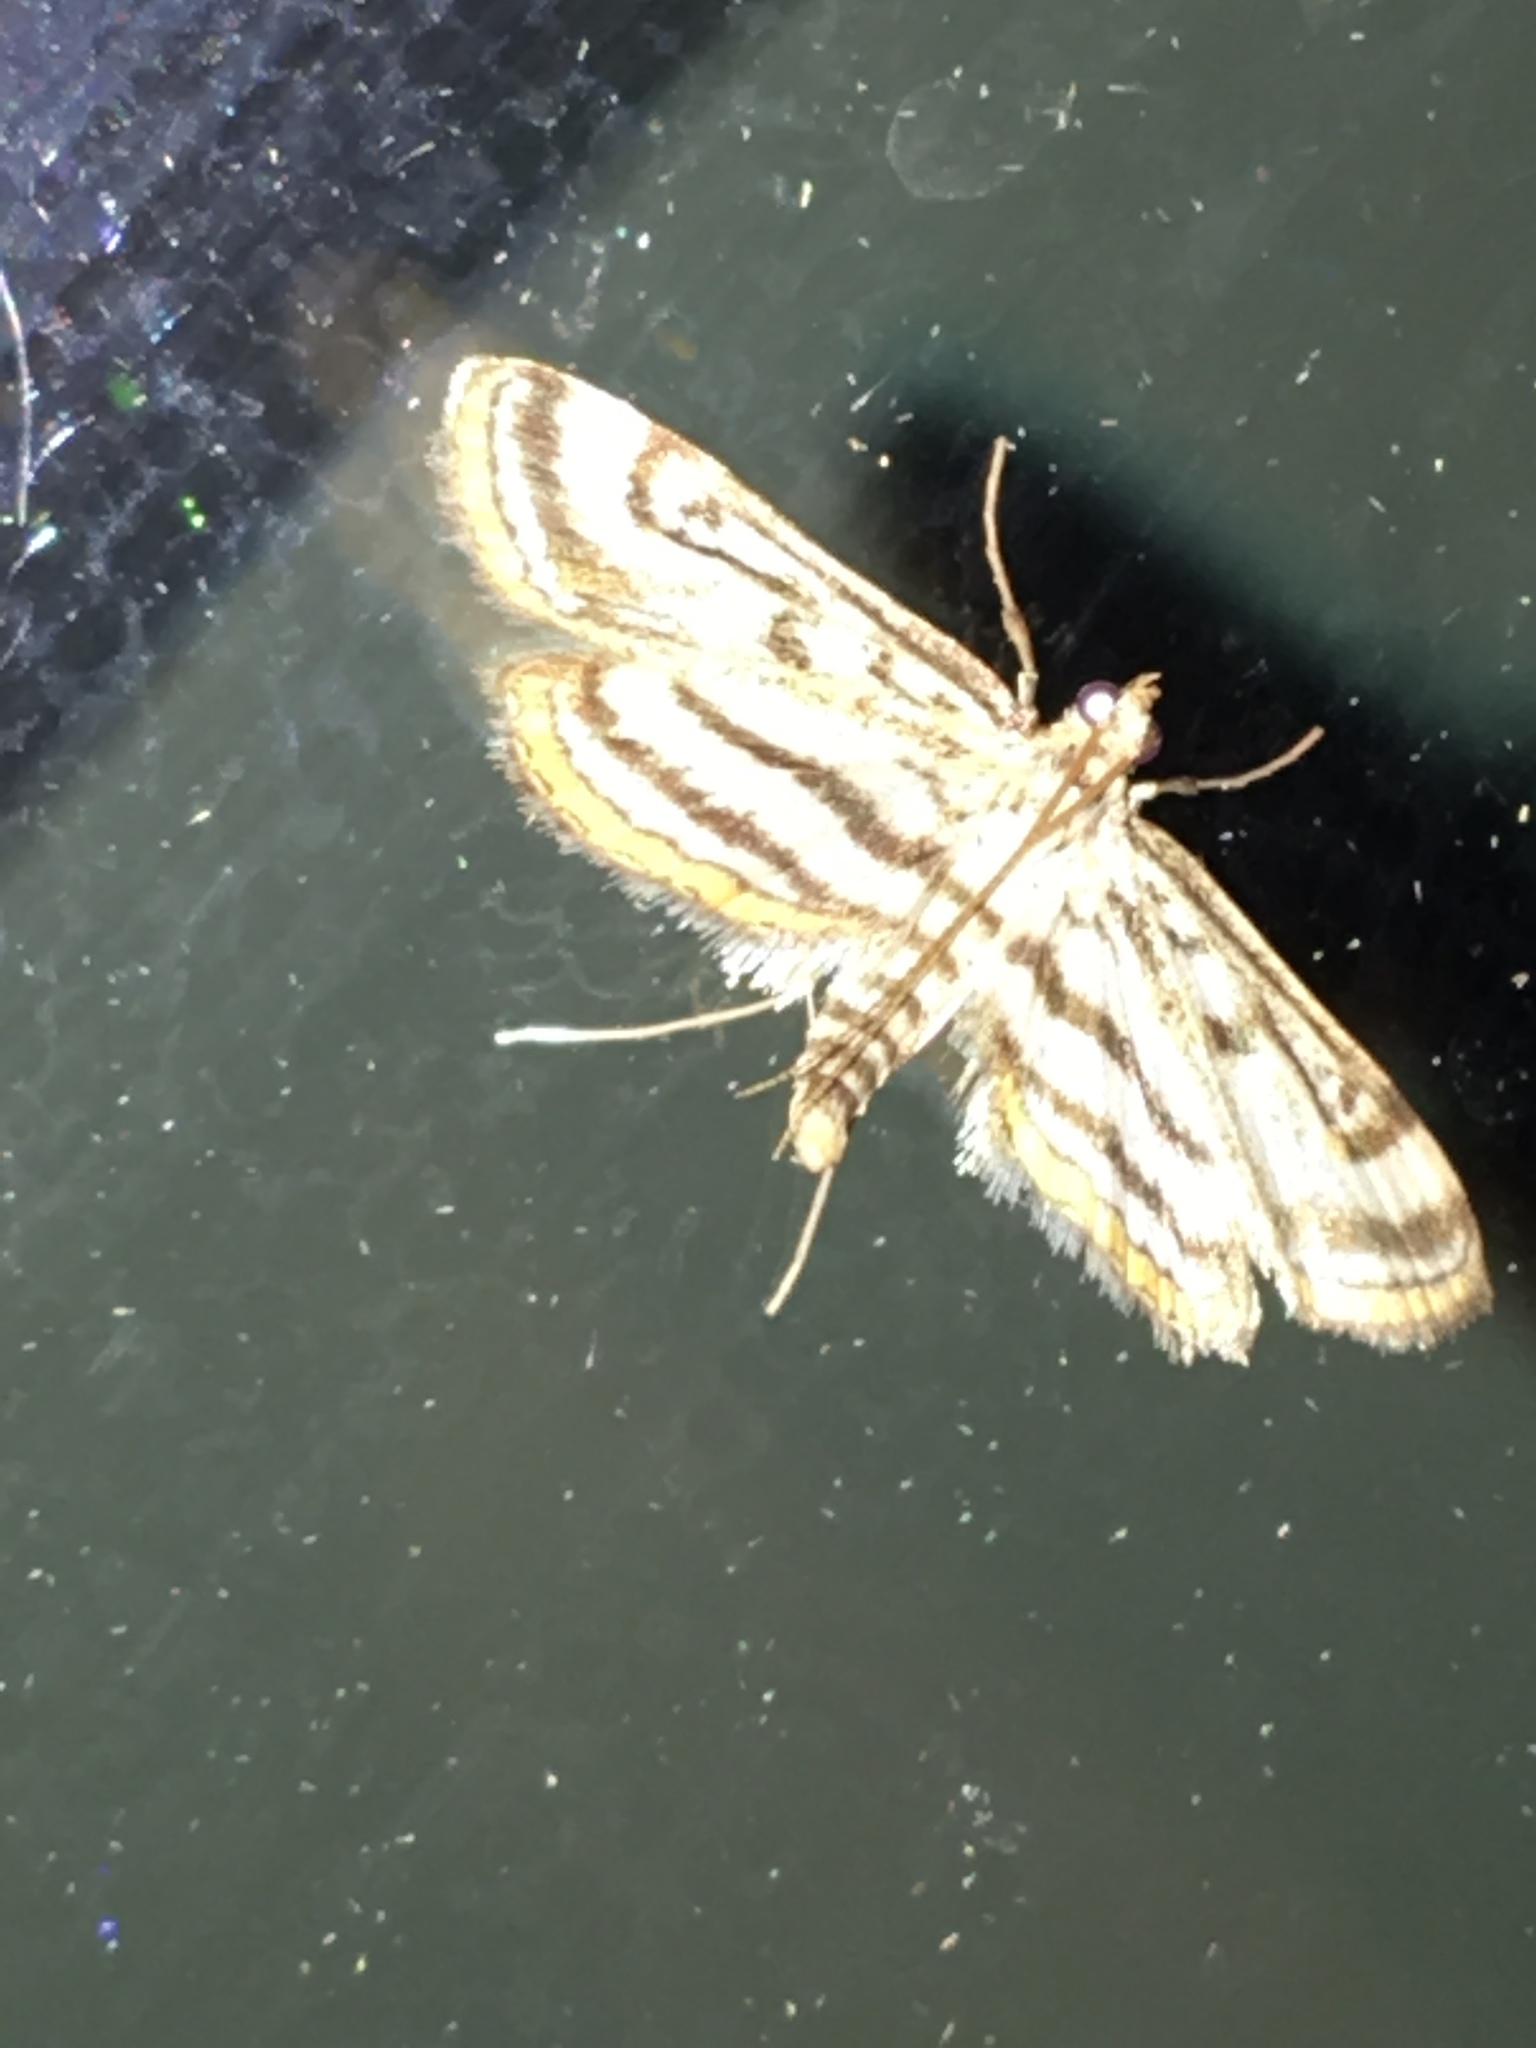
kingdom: Animalia
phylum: Arthropoda
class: Insecta
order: Lepidoptera
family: Crambidae
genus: Parapoynx
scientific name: Parapoynx badiusalis
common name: Chestnut-marked pondweed moth
